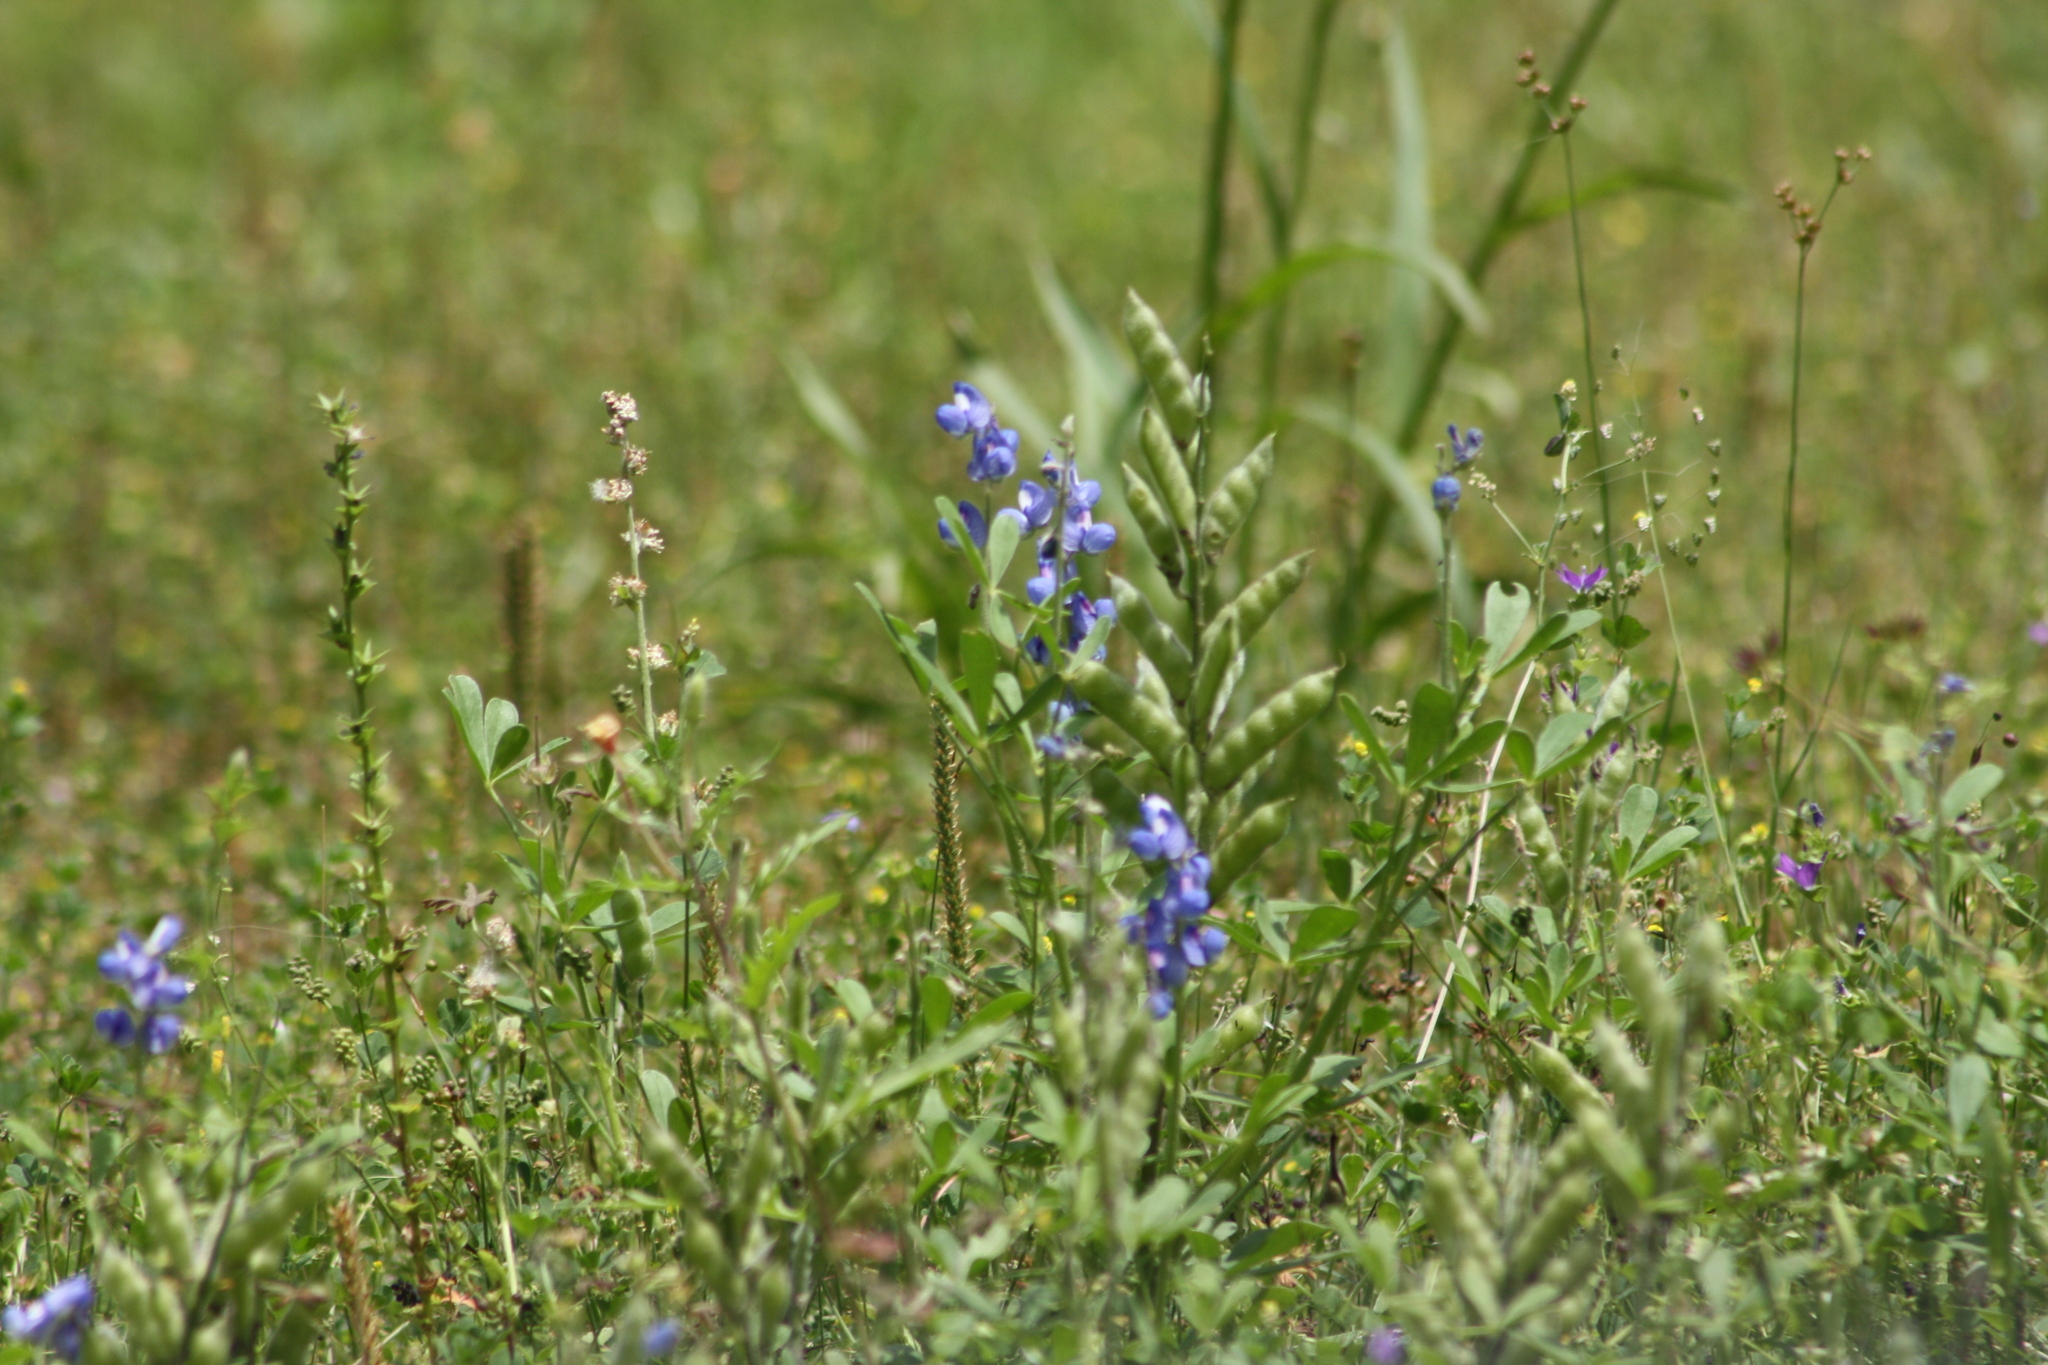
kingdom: Plantae
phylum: Tracheophyta
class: Magnoliopsida
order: Fabales
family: Fabaceae
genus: Lupinus
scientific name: Lupinus subcarnosus
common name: Texas bluebonnet
